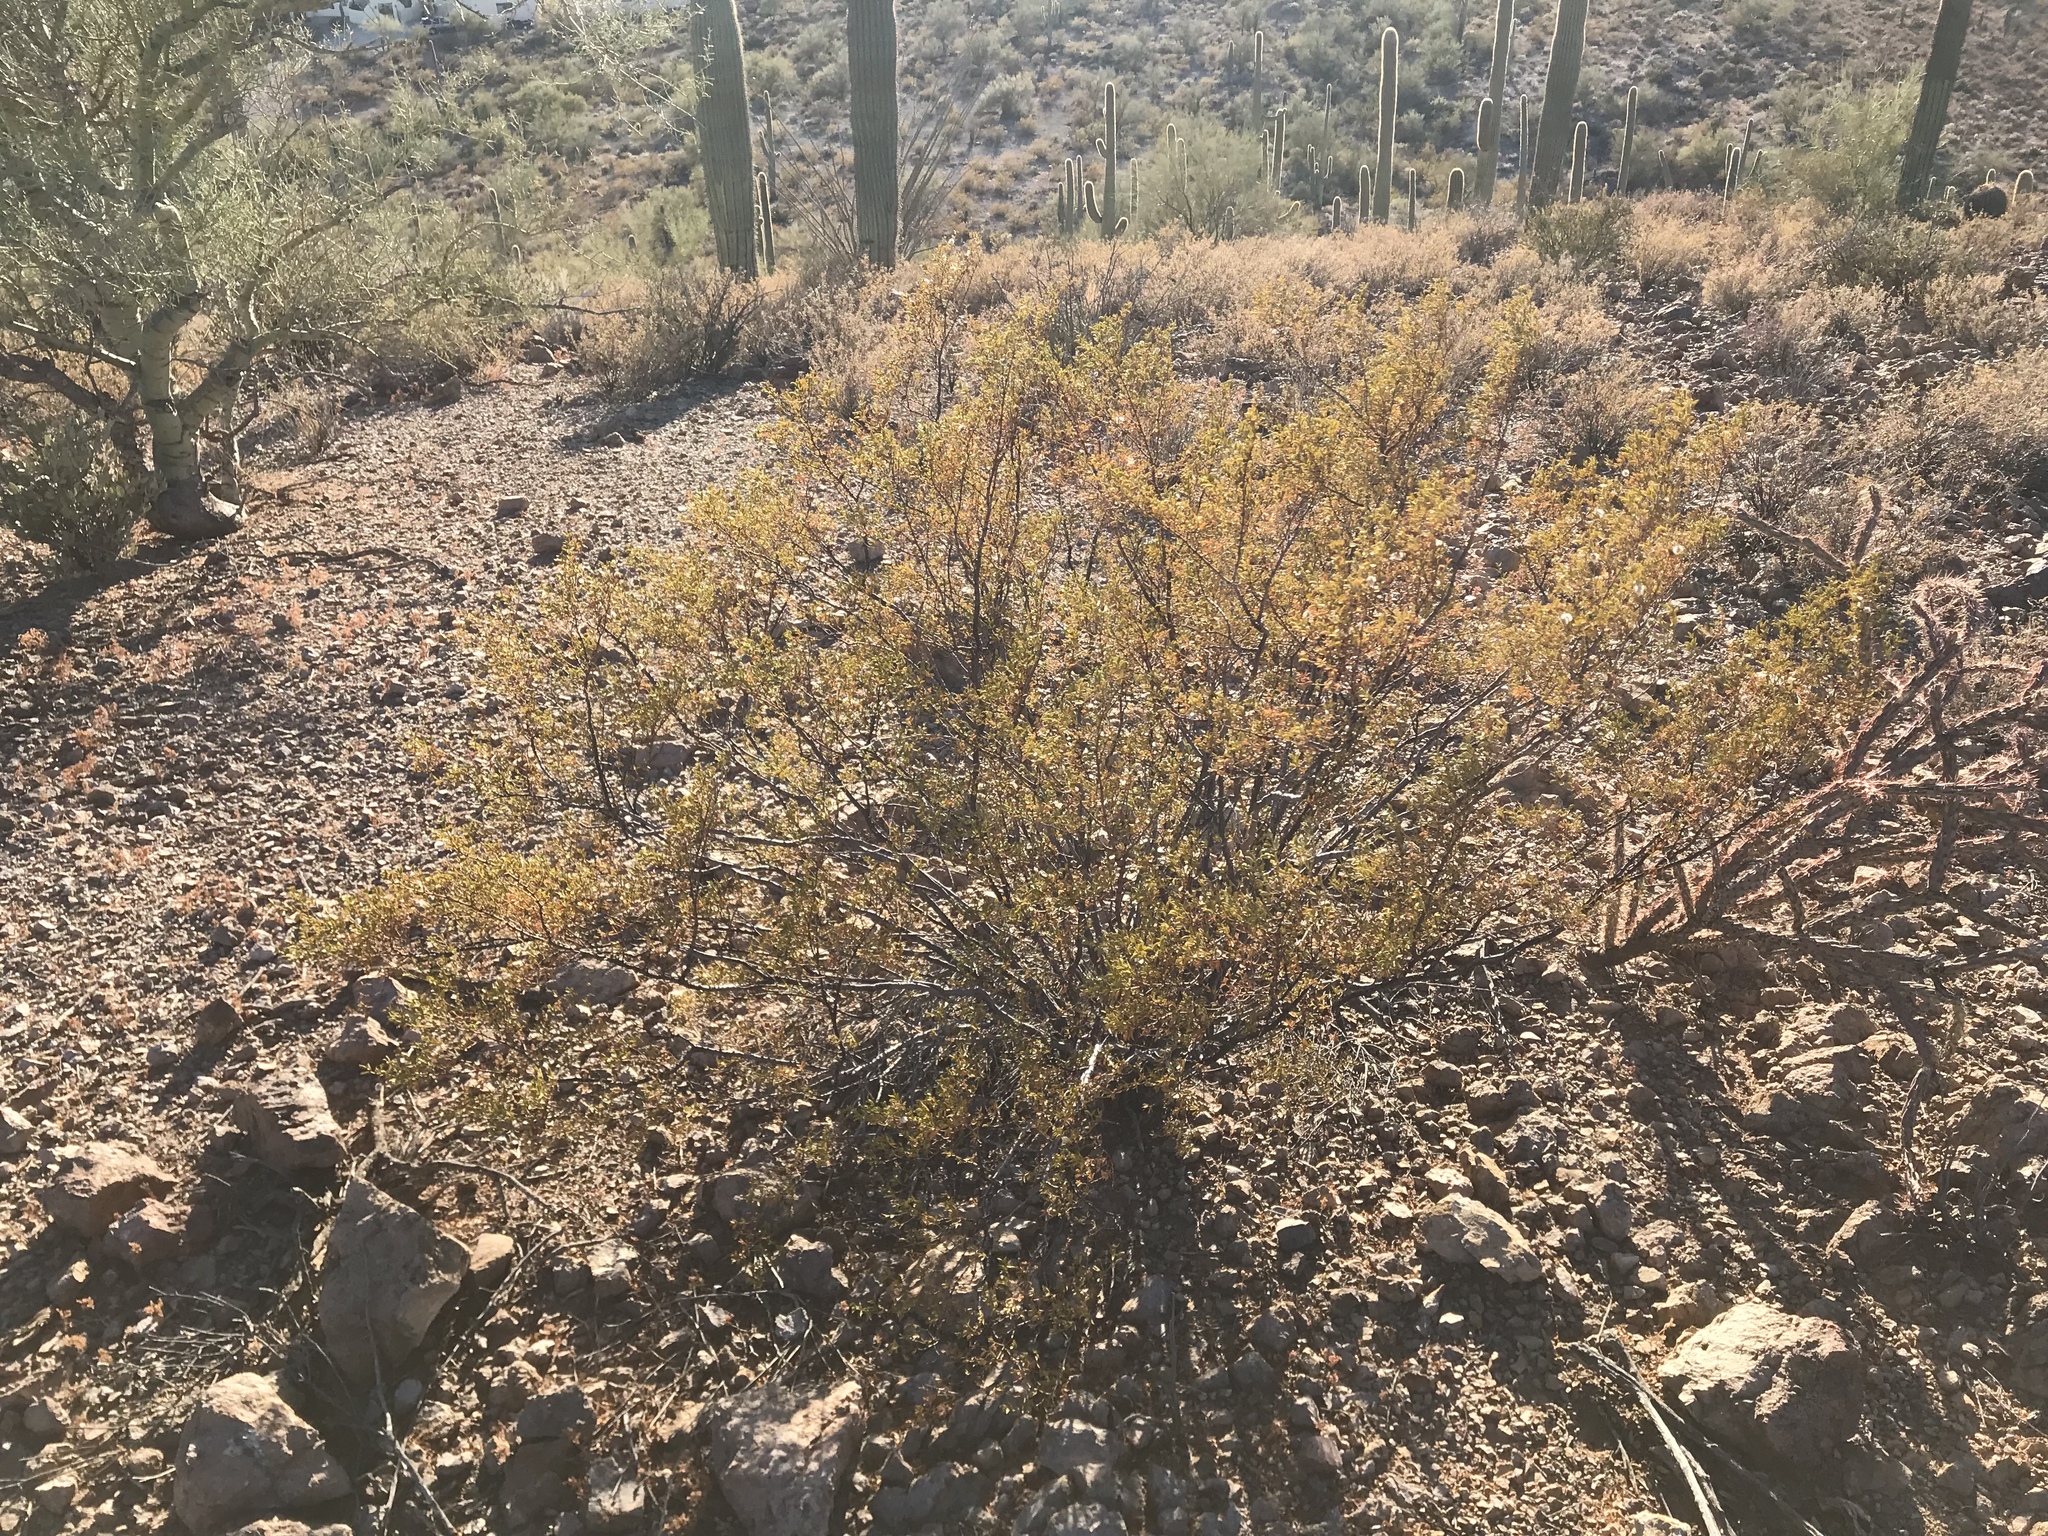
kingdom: Plantae
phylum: Tracheophyta
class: Magnoliopsida
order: Zygophyllales
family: Zygophyllaceae
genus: Larrea
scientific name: Larrea tridentata
